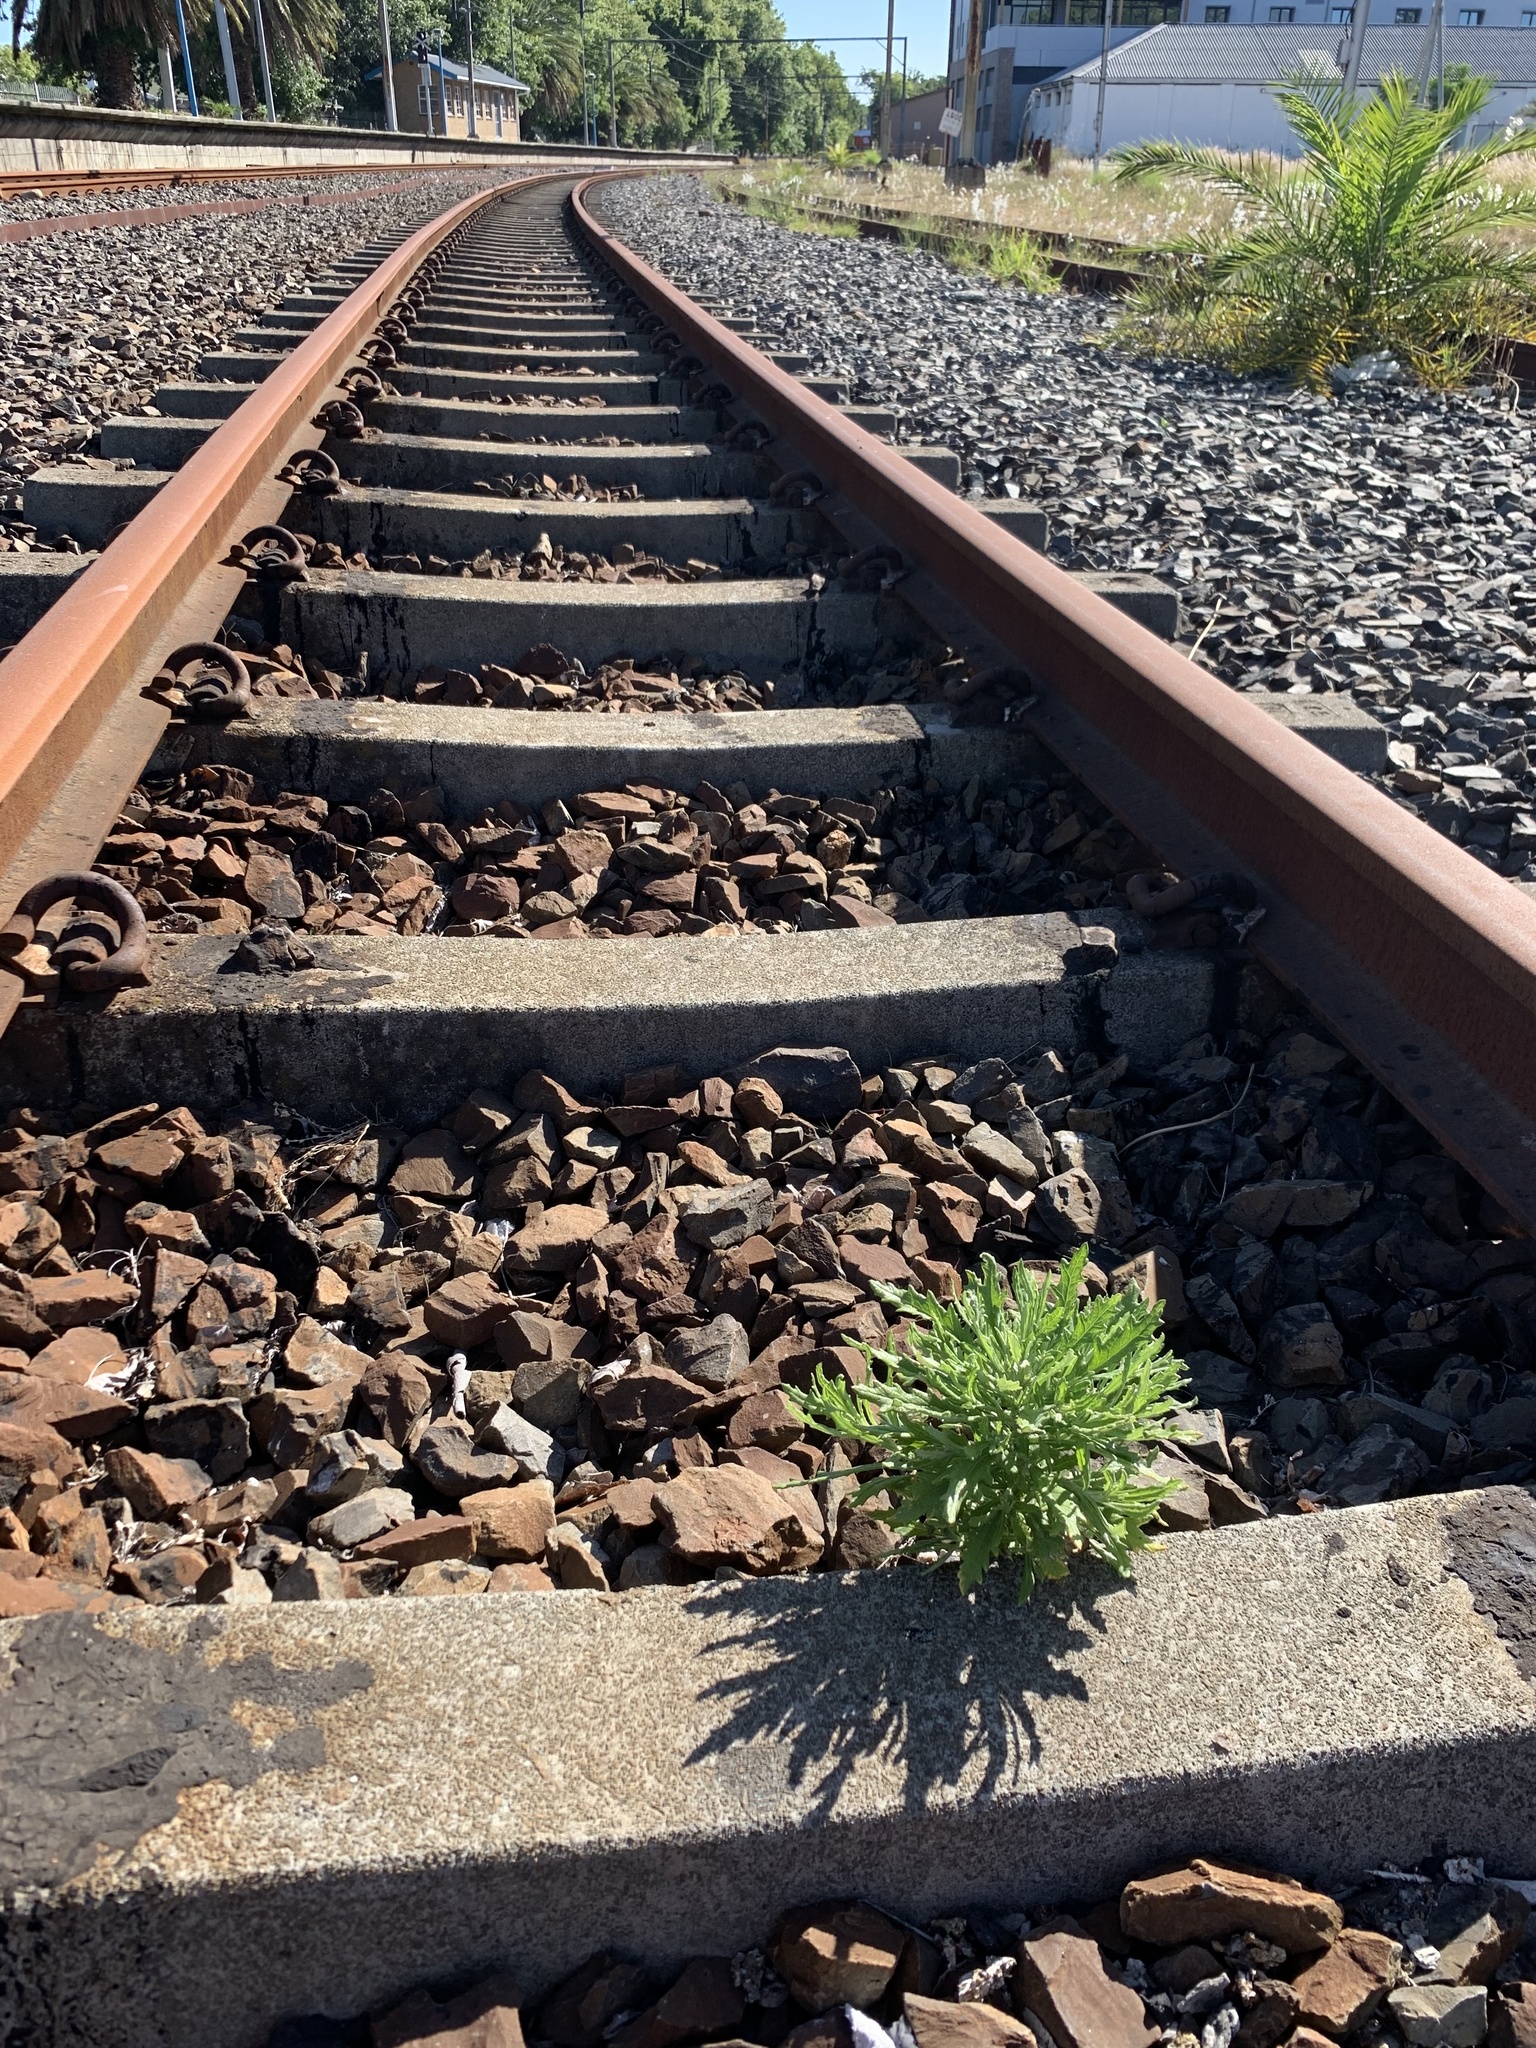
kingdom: Plantae
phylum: Tracheophyta
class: Magnoliopsida
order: Asterales
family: Asteraceae
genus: Senecio
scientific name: Senecio pterophorus
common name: Shoddy ragwort
